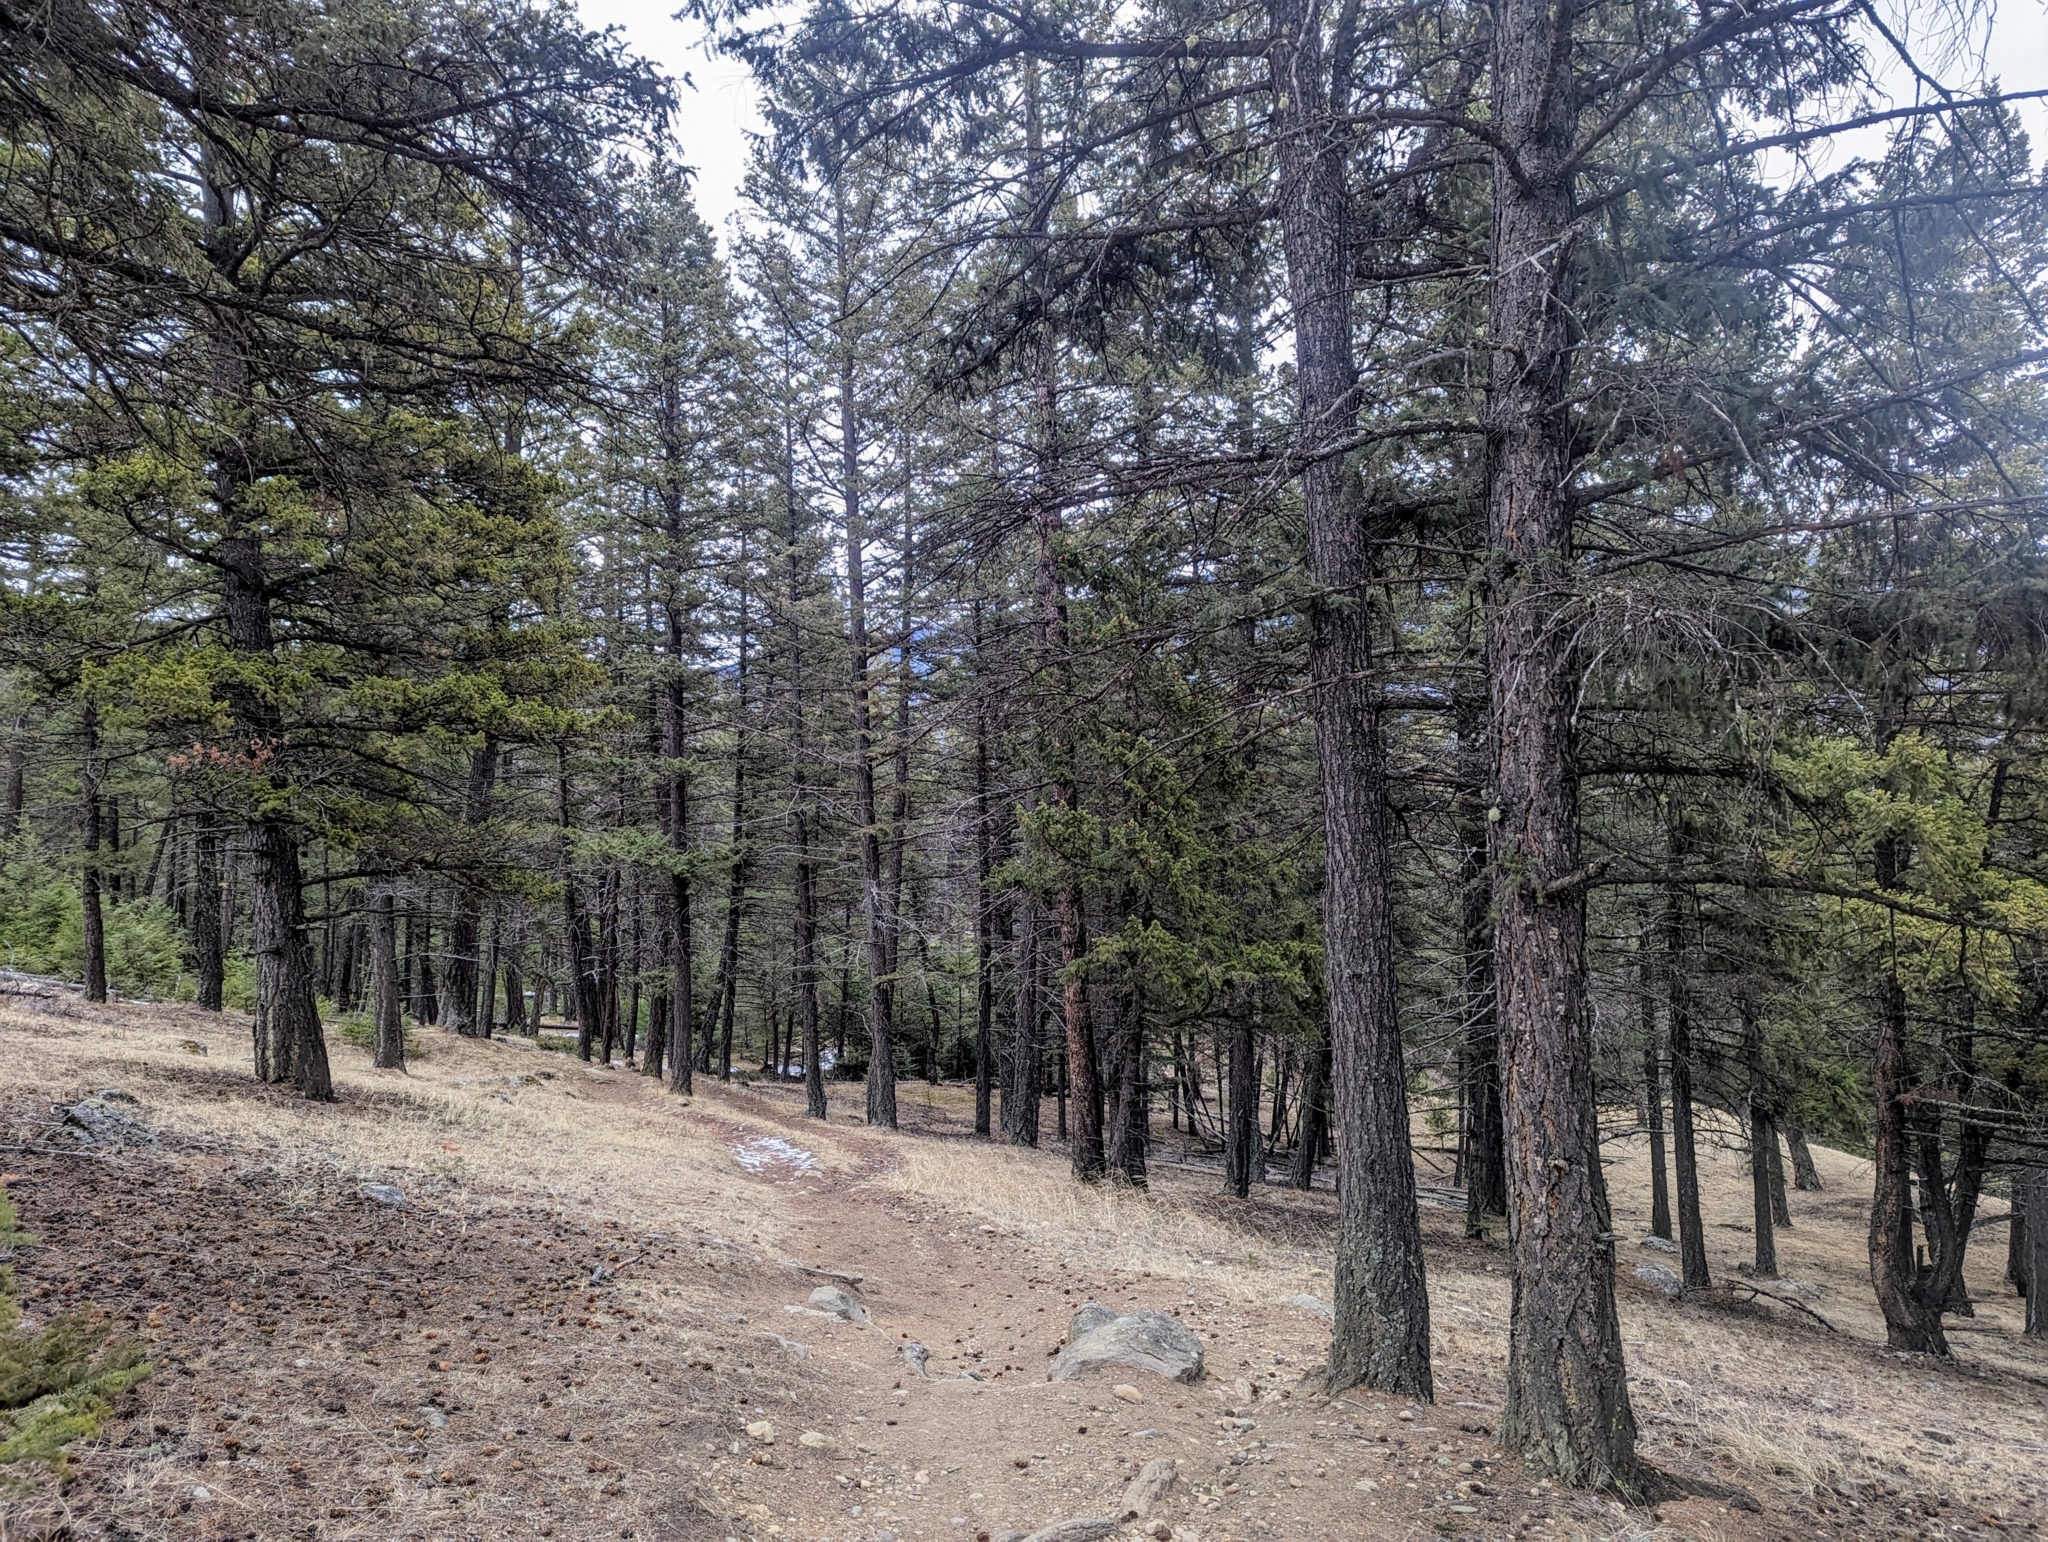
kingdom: Plantae
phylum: Tracheophyta
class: Pinopsida
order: Pinales
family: Pinaceae
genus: Pseudotsuga
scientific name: Pseudotsuga menziesii
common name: Douglas fir
